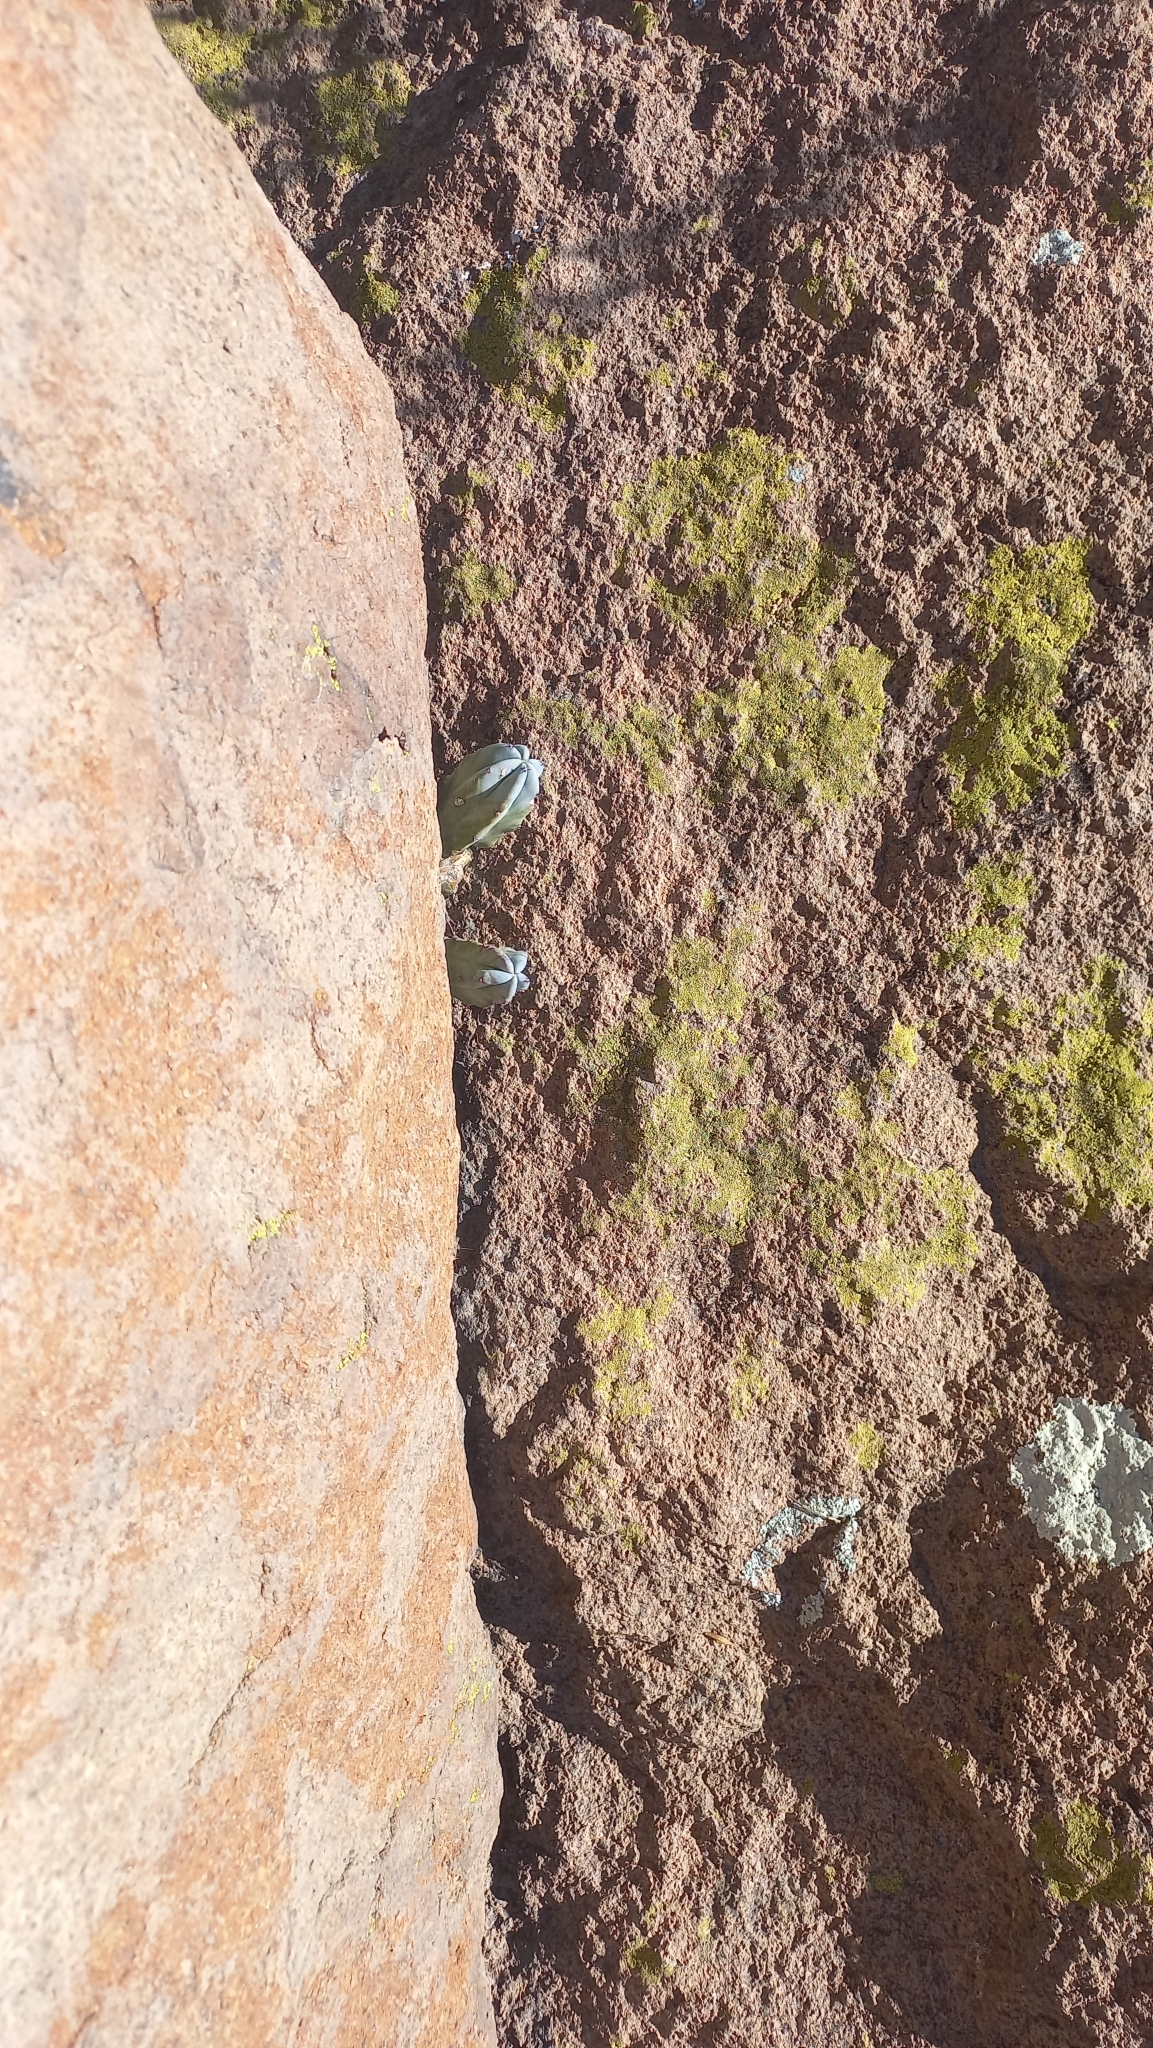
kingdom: Plantae
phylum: Tracheophyta
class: Magnoliopsida
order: Caryophyllales
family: Cactaceae
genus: Myrtillocactus
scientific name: Myrtillocactus geometrizans
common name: Bilberry cactus
